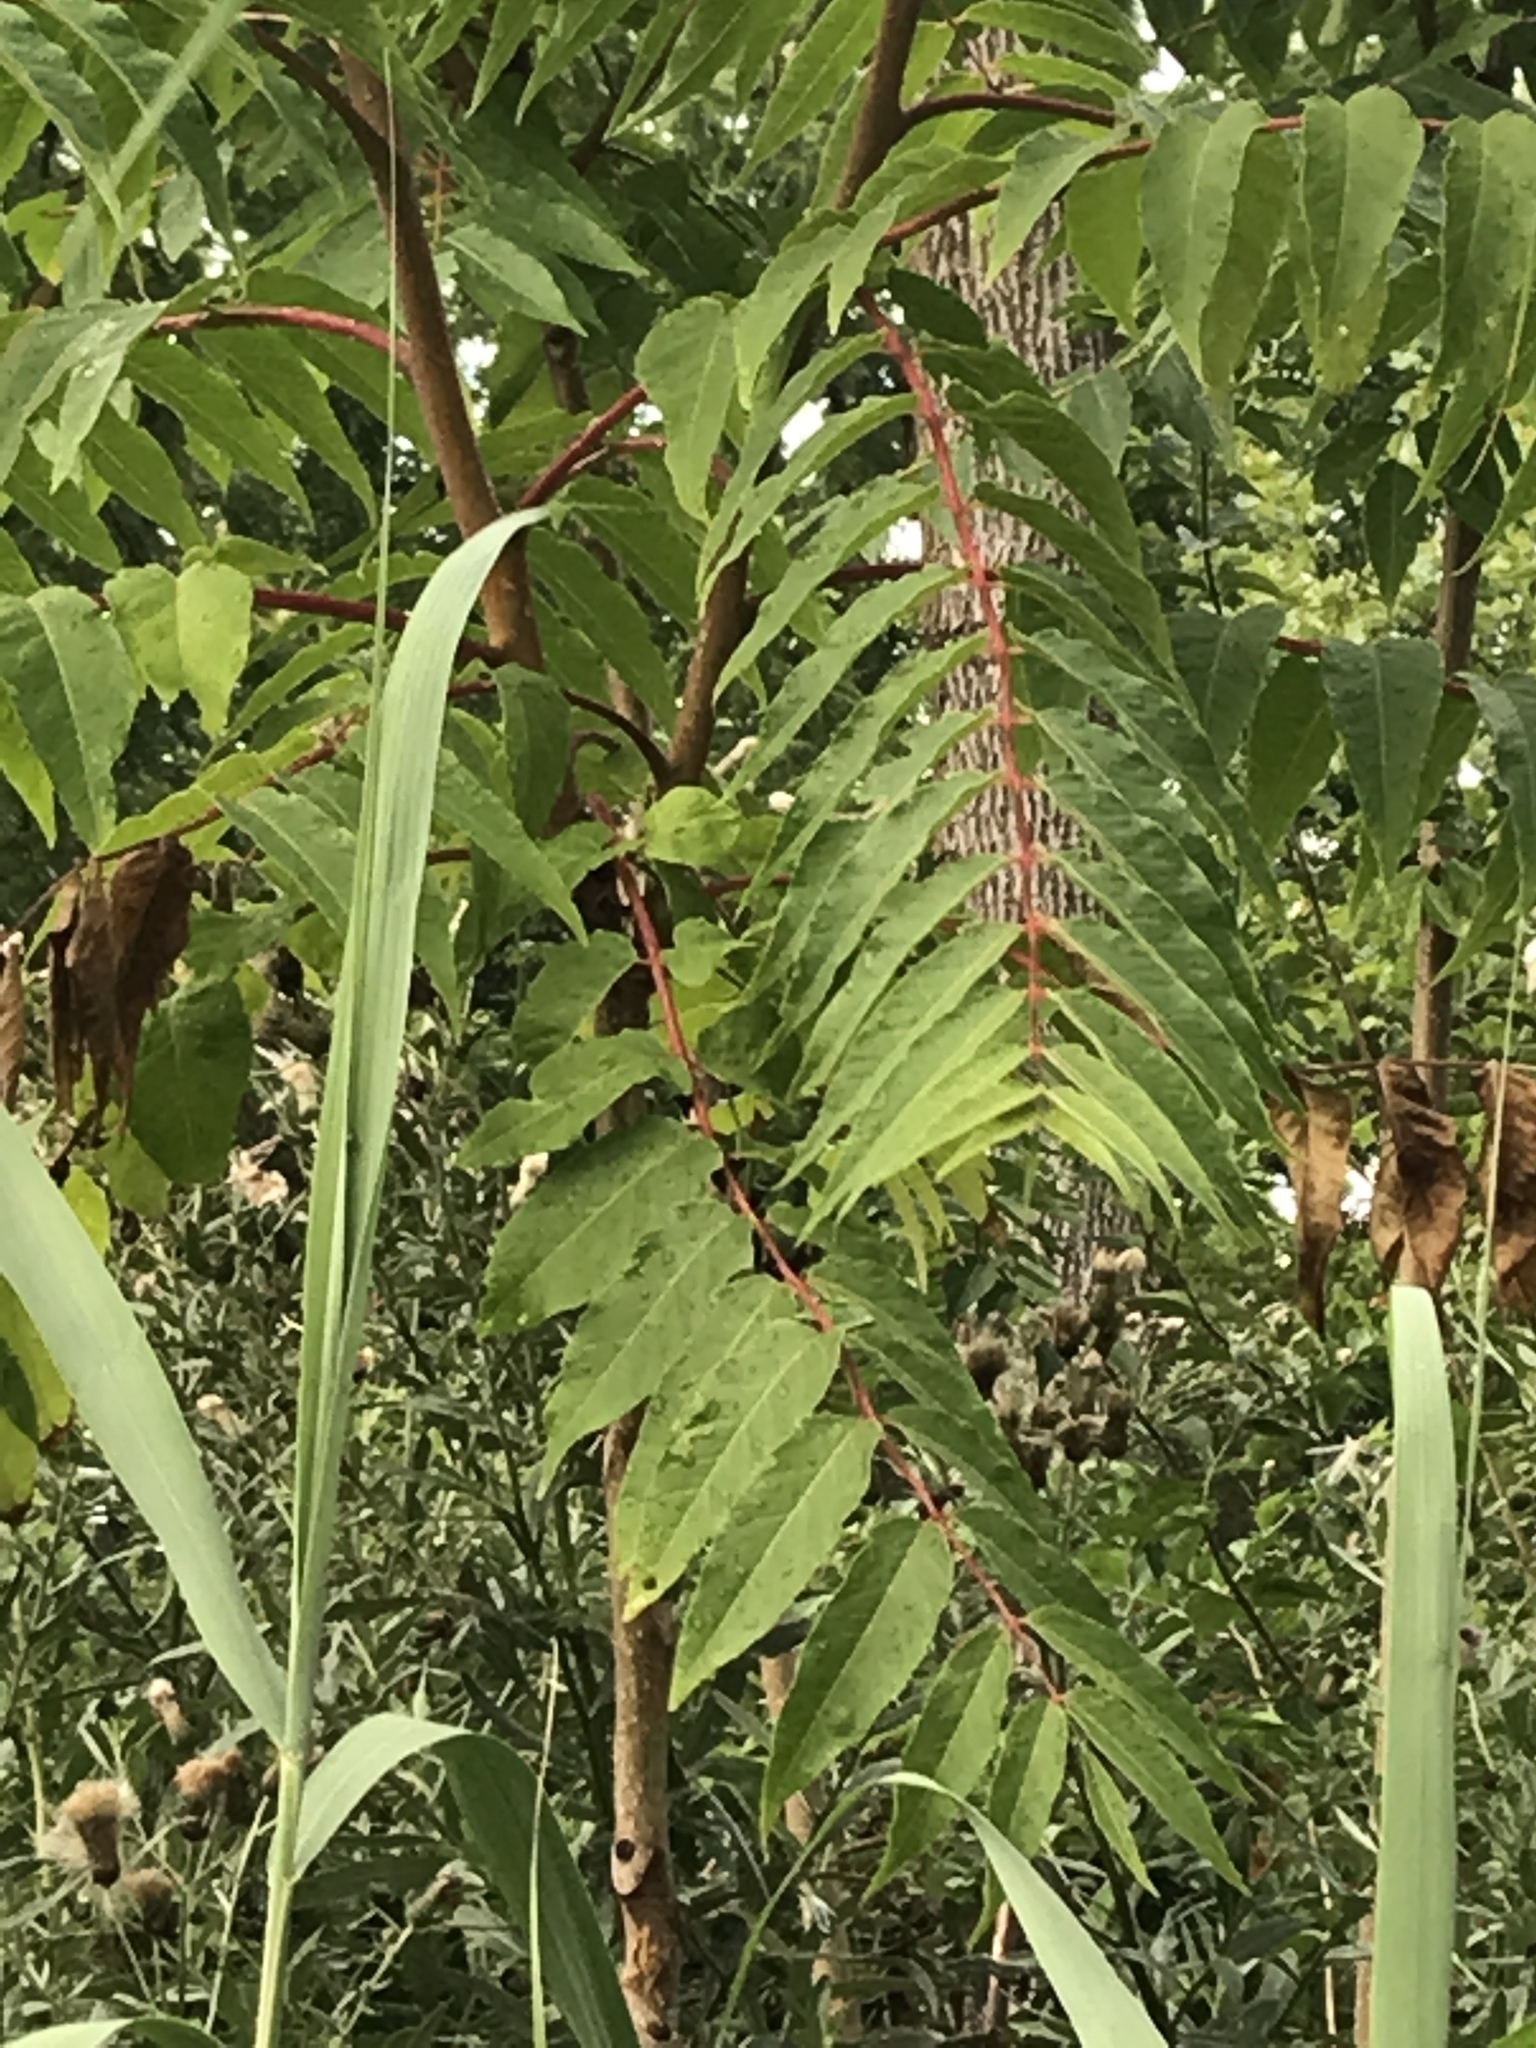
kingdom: Plantae
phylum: Tracheophyta
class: Magnoliopsida
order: Sapindales
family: Simaroubaceae
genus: Ailanthus
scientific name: Ailanthus altissima
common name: Tree-of-heaven
